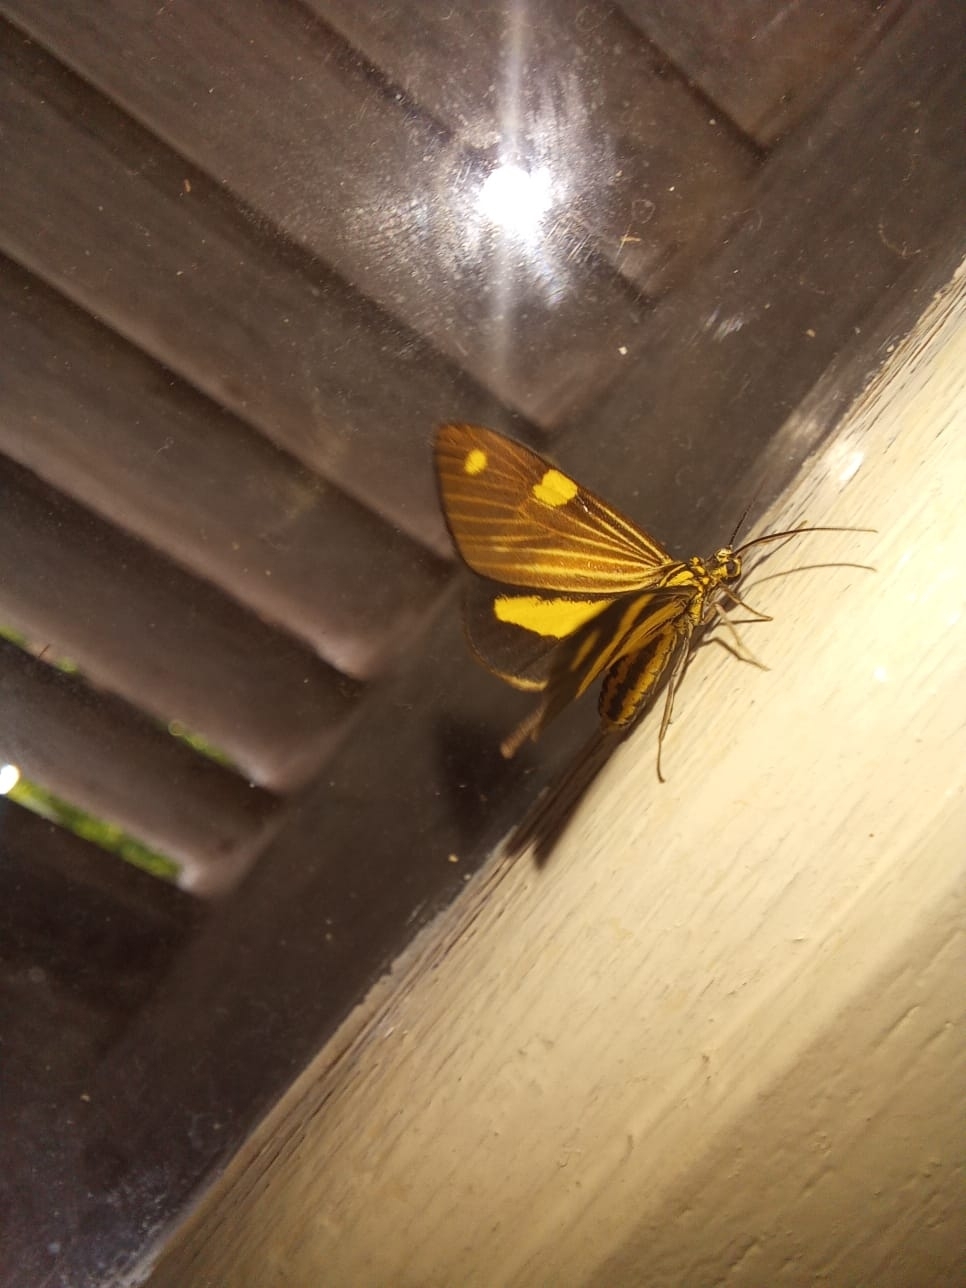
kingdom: Animalia
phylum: Arthropoda
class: Insecta
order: Lepidoptera
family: Notodontidae
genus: Phaeochlaena
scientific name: Phaeochlaena
